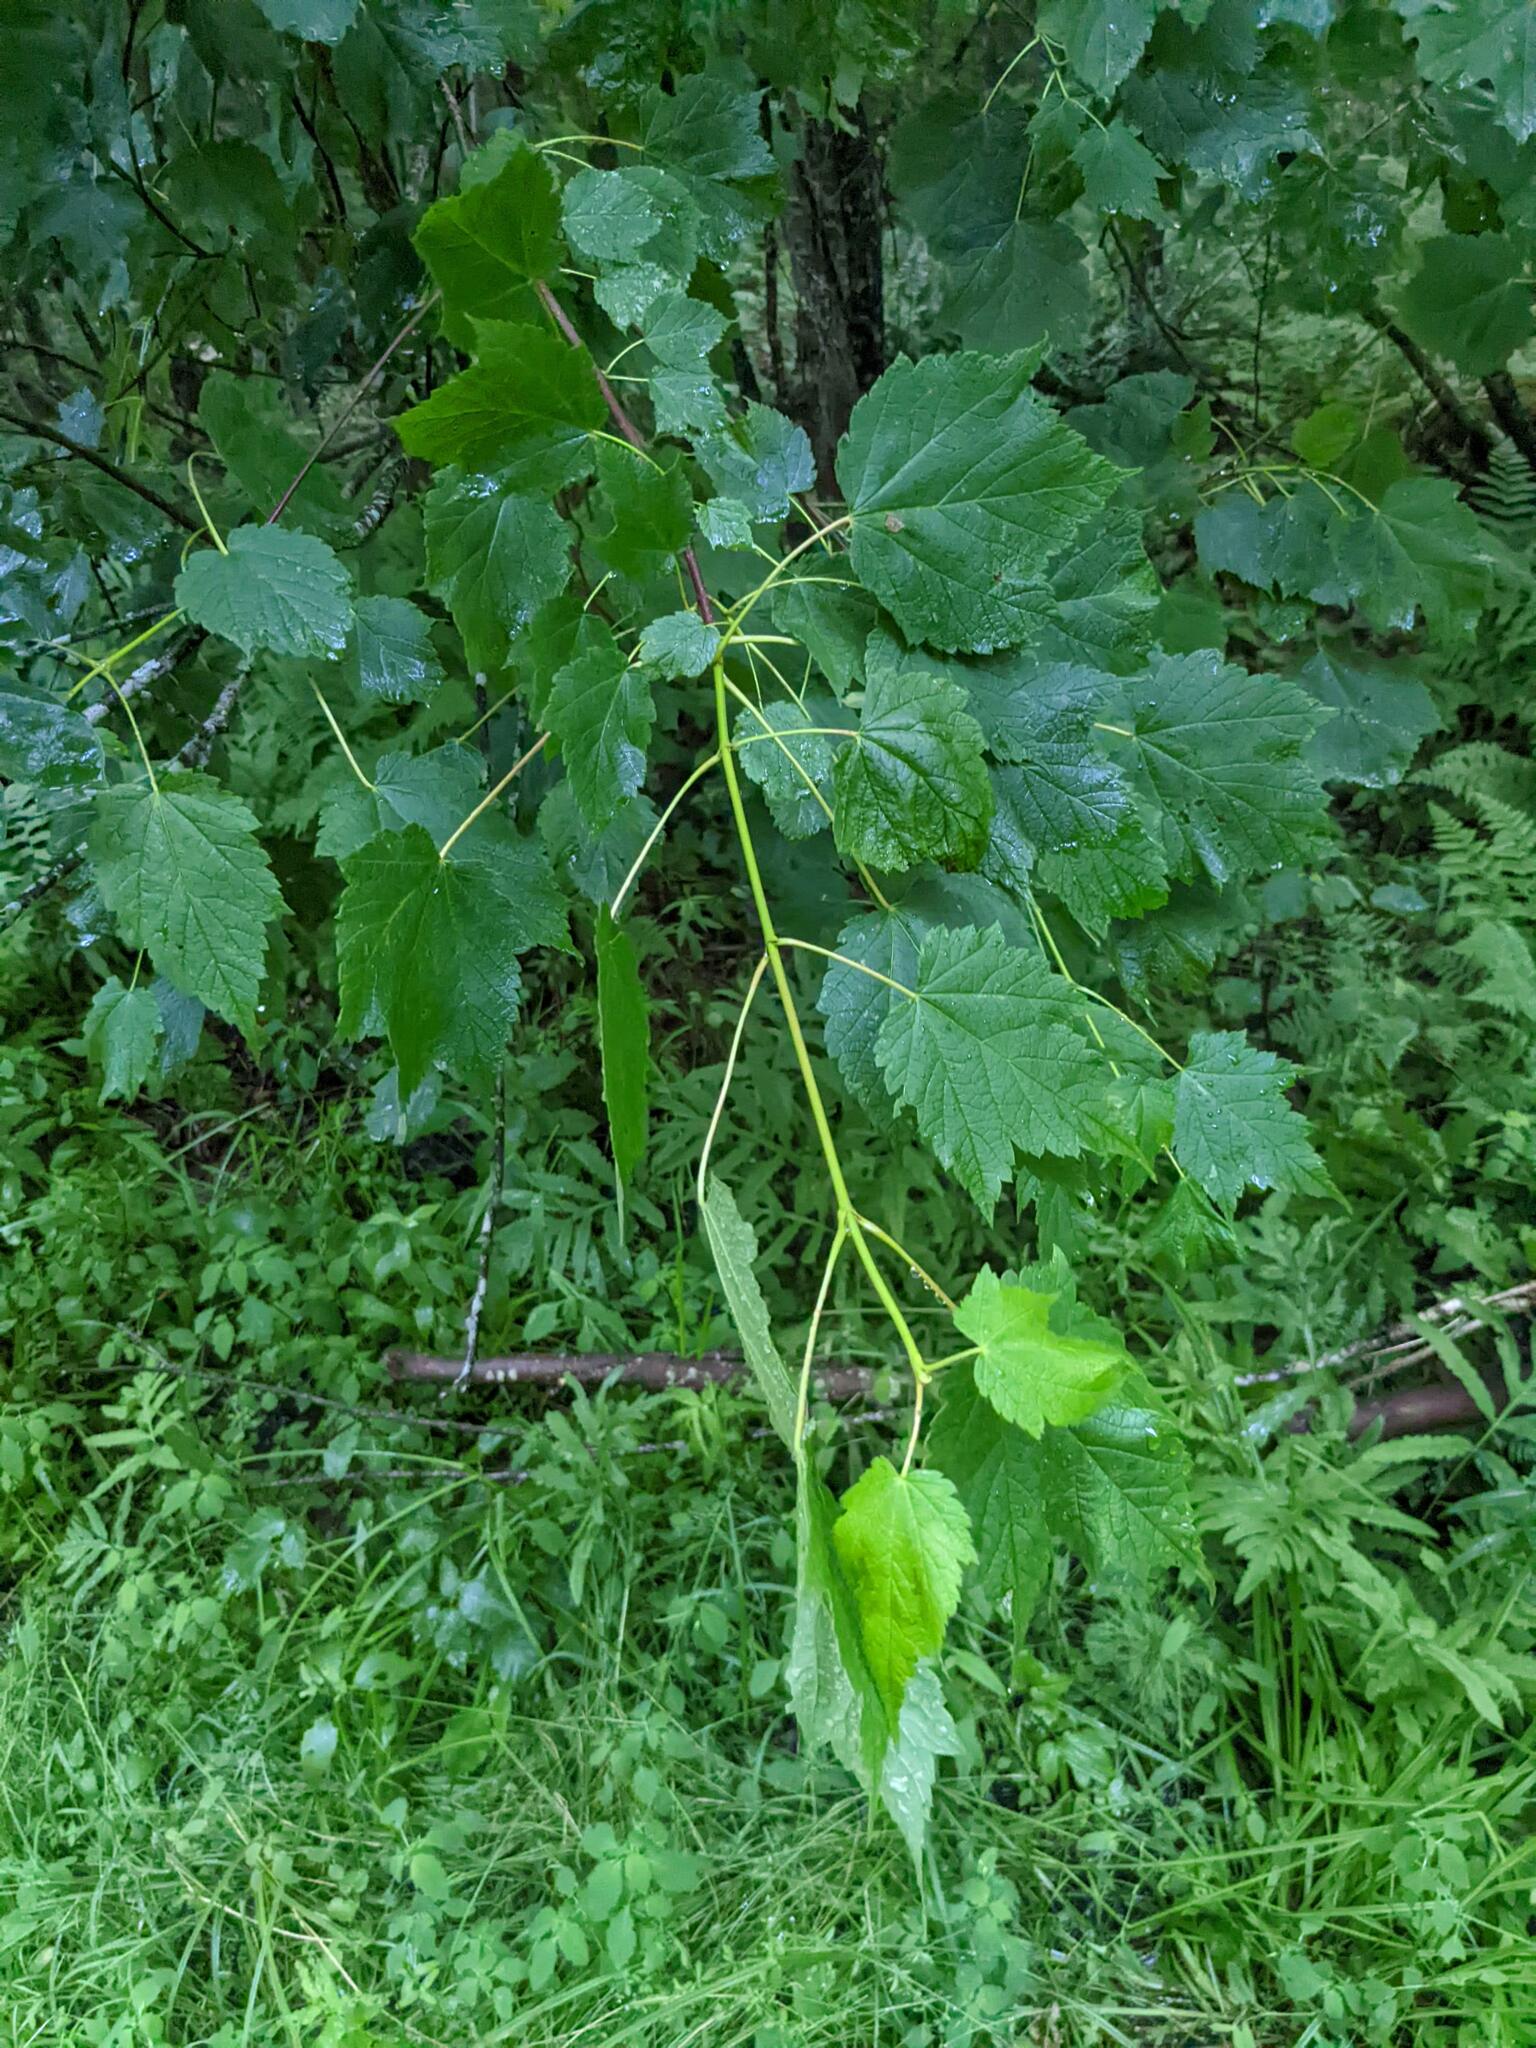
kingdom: Plantae
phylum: Tracheophyta
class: Magnoliopsida
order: Sapindales
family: Sapindaceae
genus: Acer
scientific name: Acer spicatum
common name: Mountain maple
